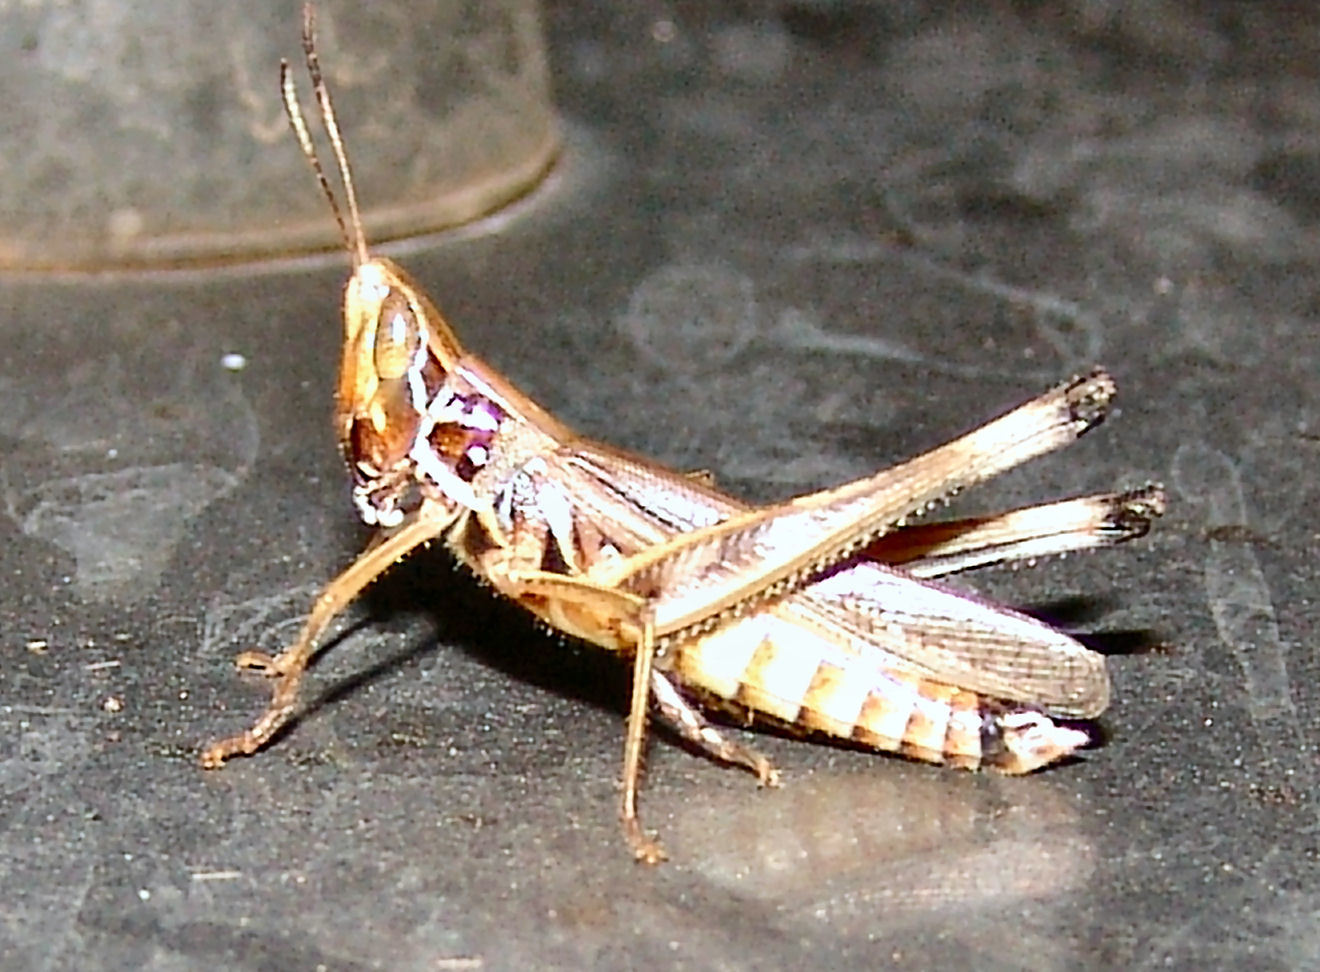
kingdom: Animalia
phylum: Arthropoda
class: Insecta
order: Orthoptera
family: Acrididae
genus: Syrbula
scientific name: Syrbula admirabilis
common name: Handsome grasshopper
